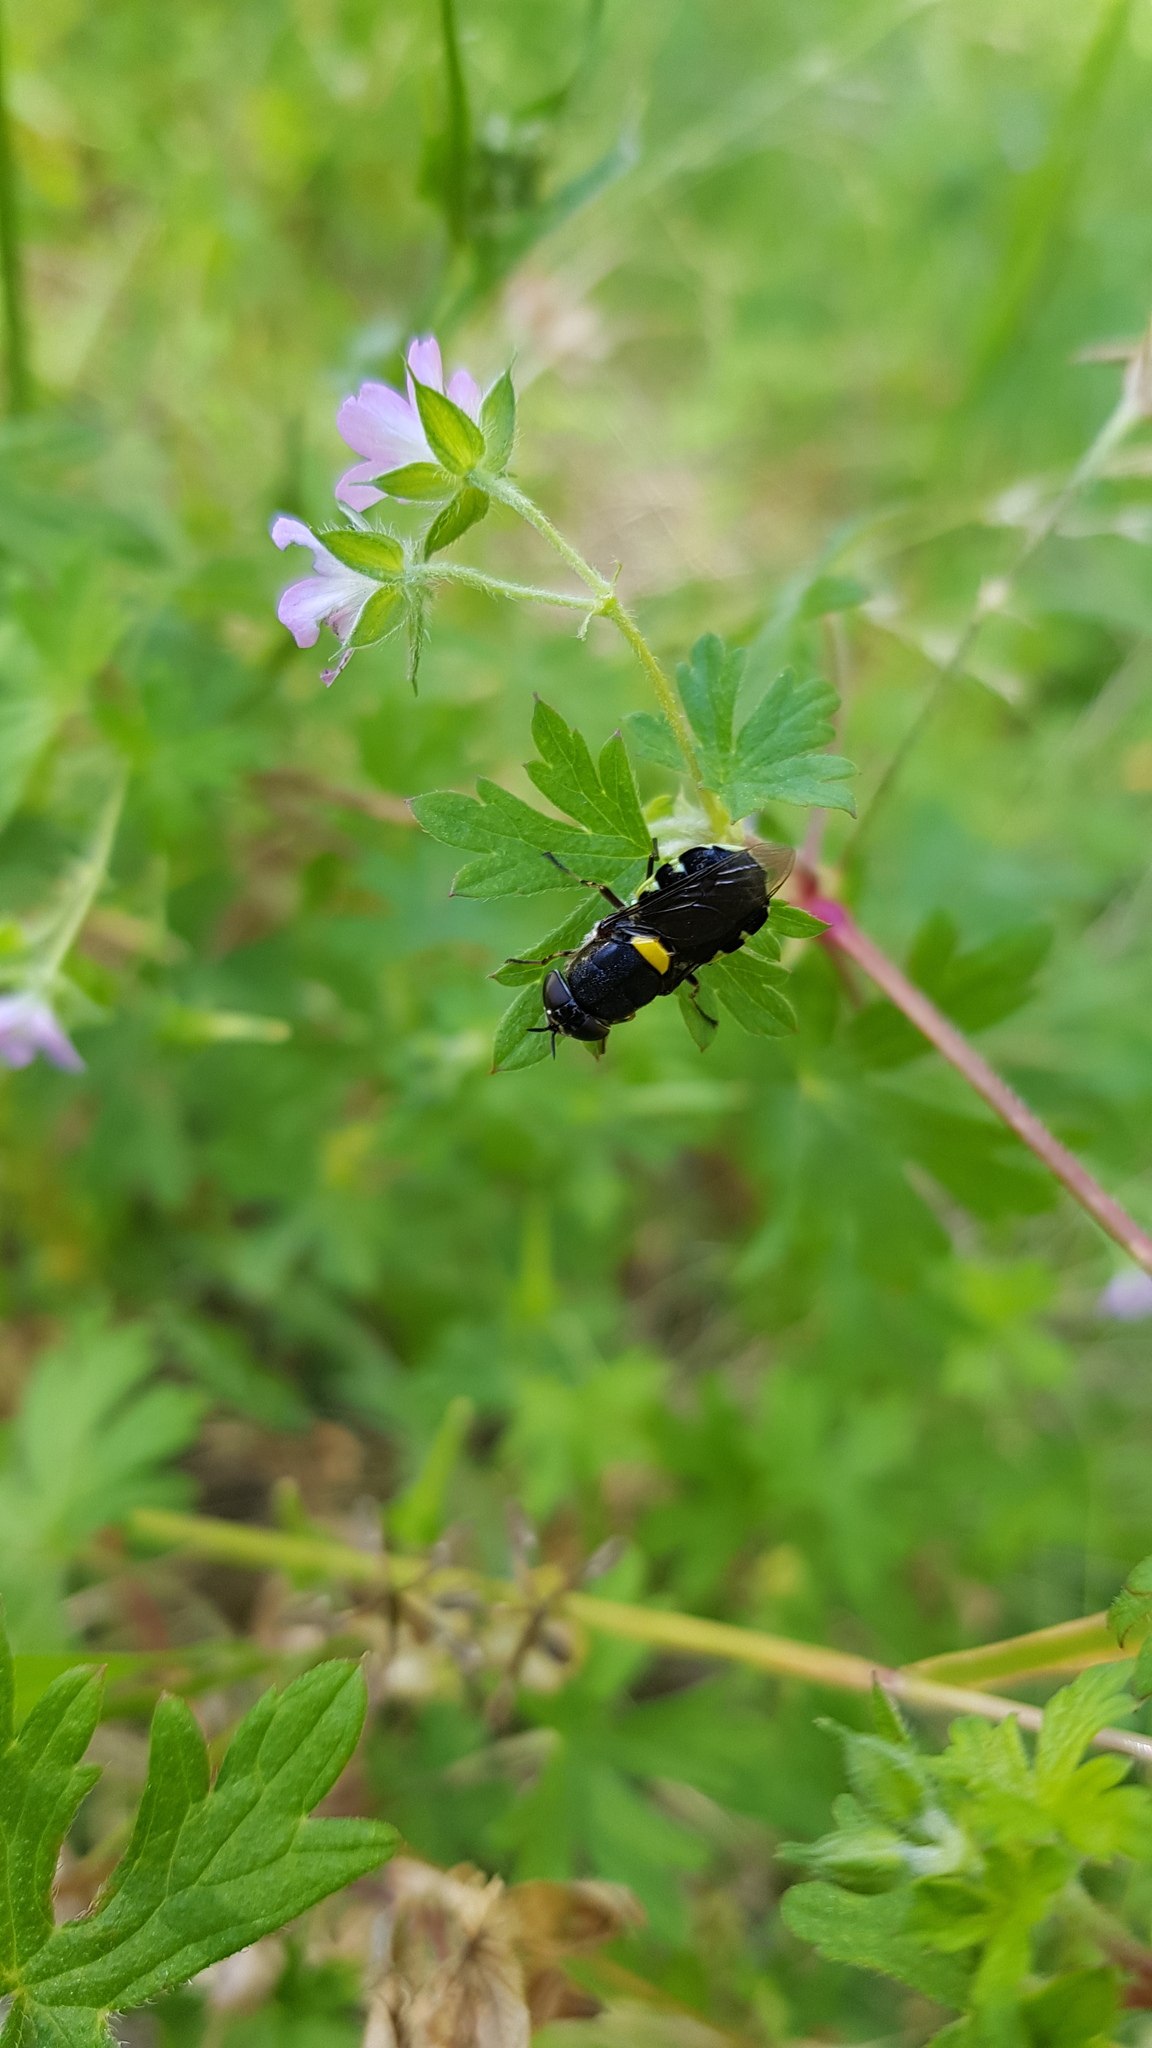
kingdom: Animalia
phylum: Arthropoda
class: Insecta
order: Diptera
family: Stratiomyidae
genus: Odontomyia
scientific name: Odontomyia hunteri
